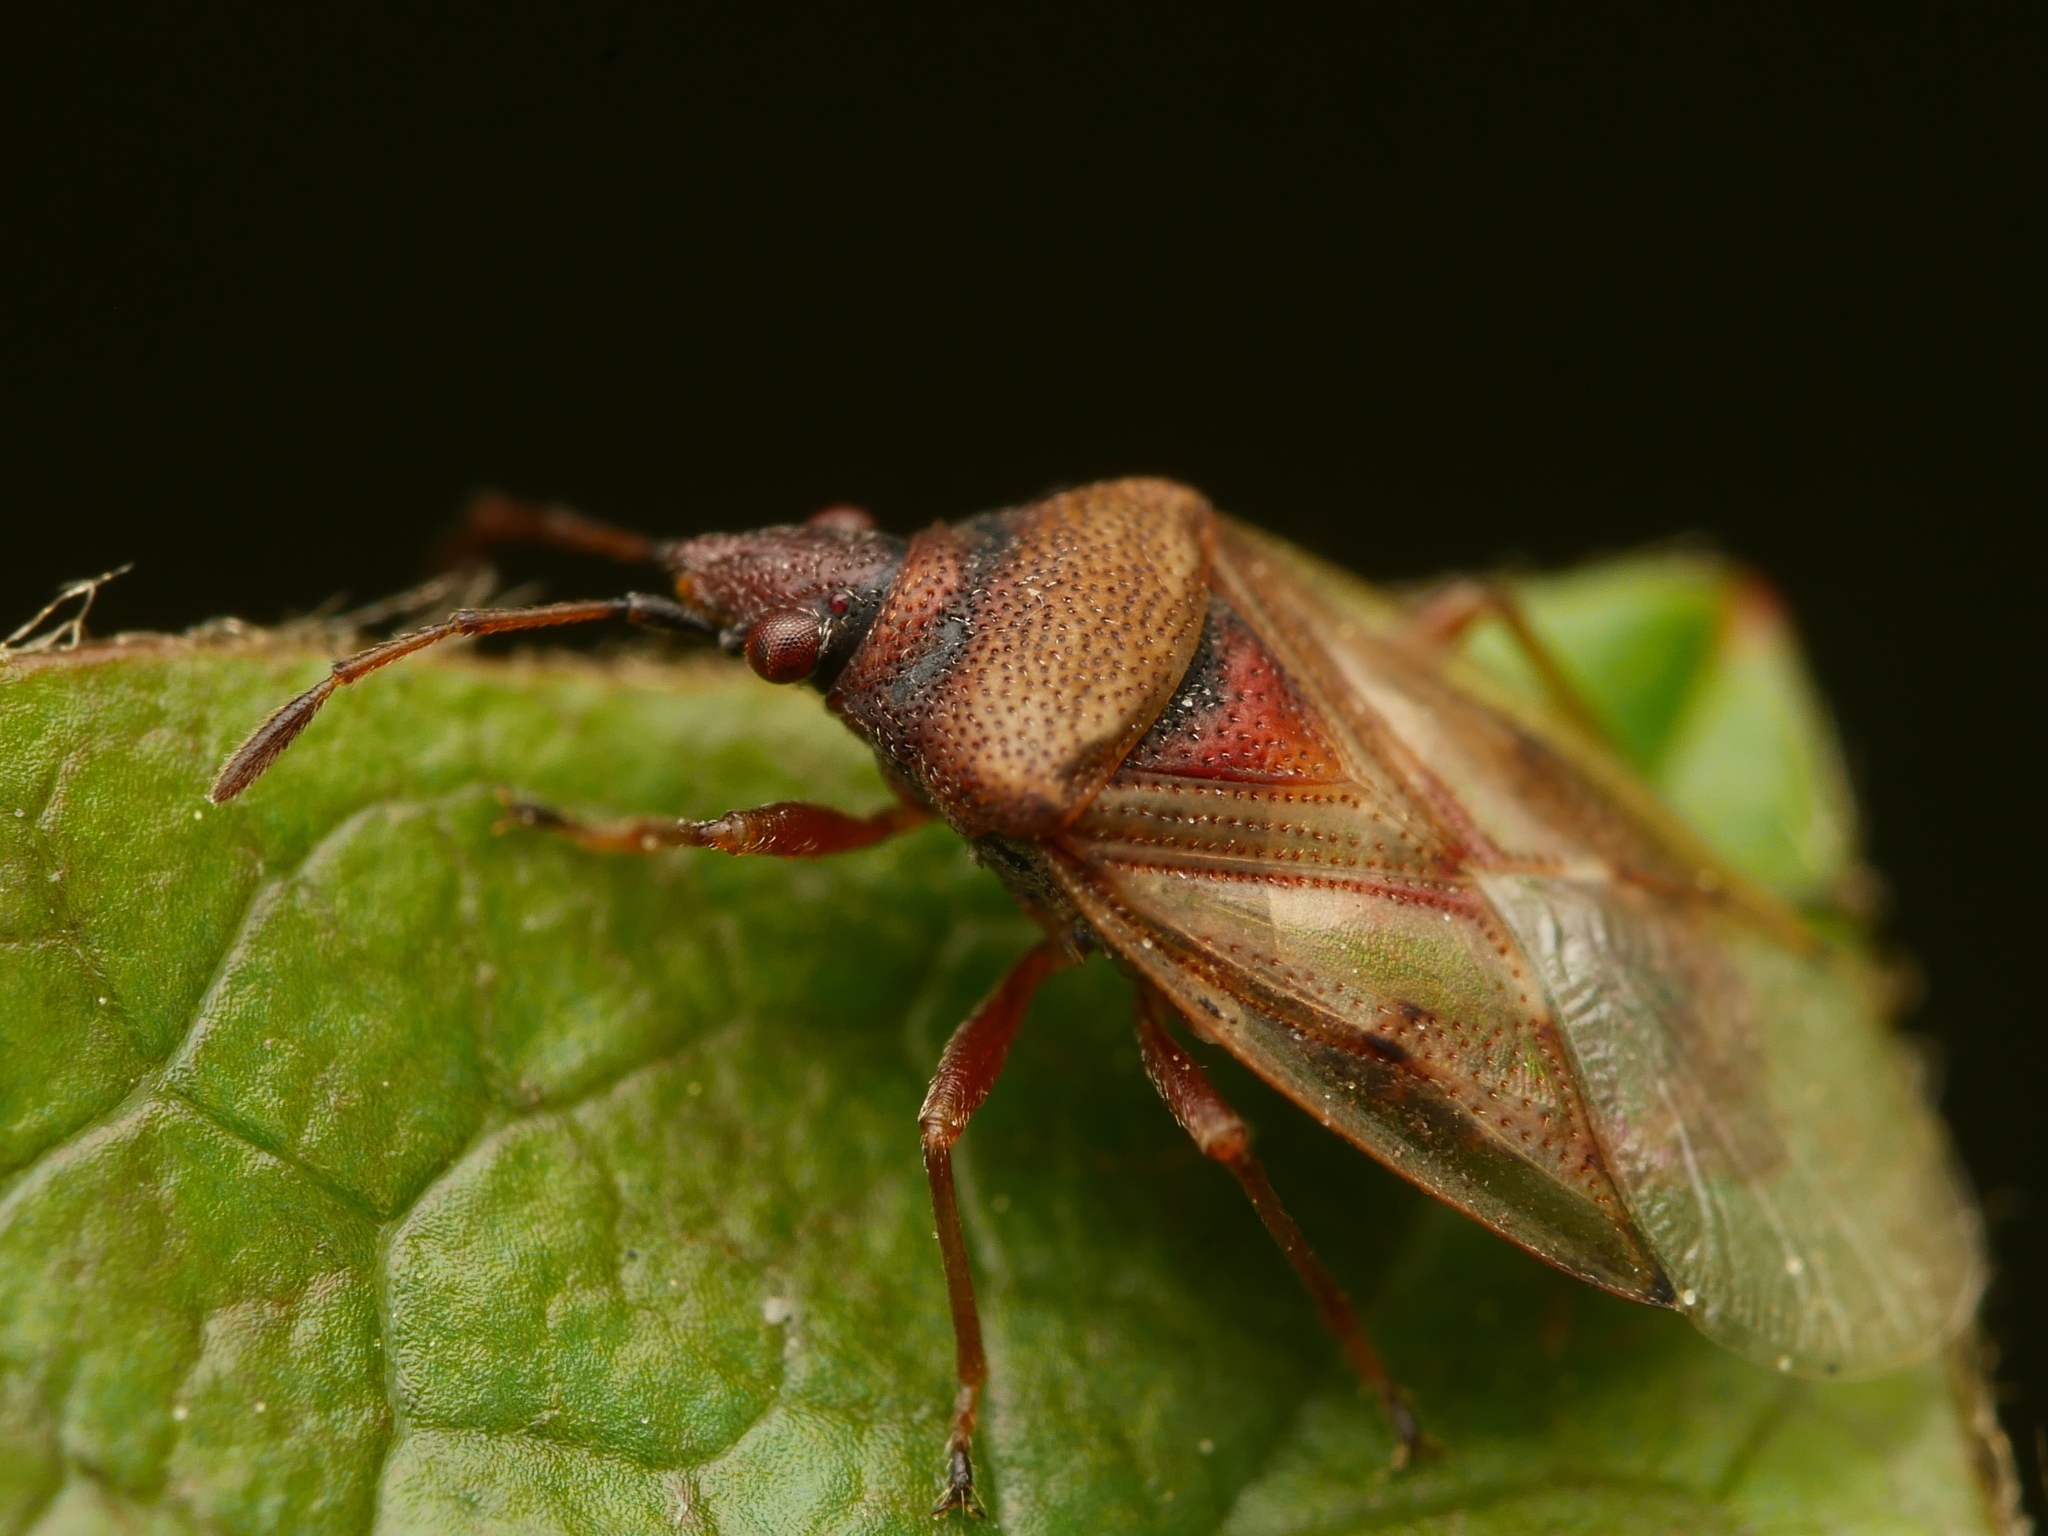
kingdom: Animalia
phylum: Arthropoda
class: Insecta
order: Hemiptera
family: Lygaeidae
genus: Kleidocerys
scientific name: Kleidocerys resedae
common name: Birch catkin bug
